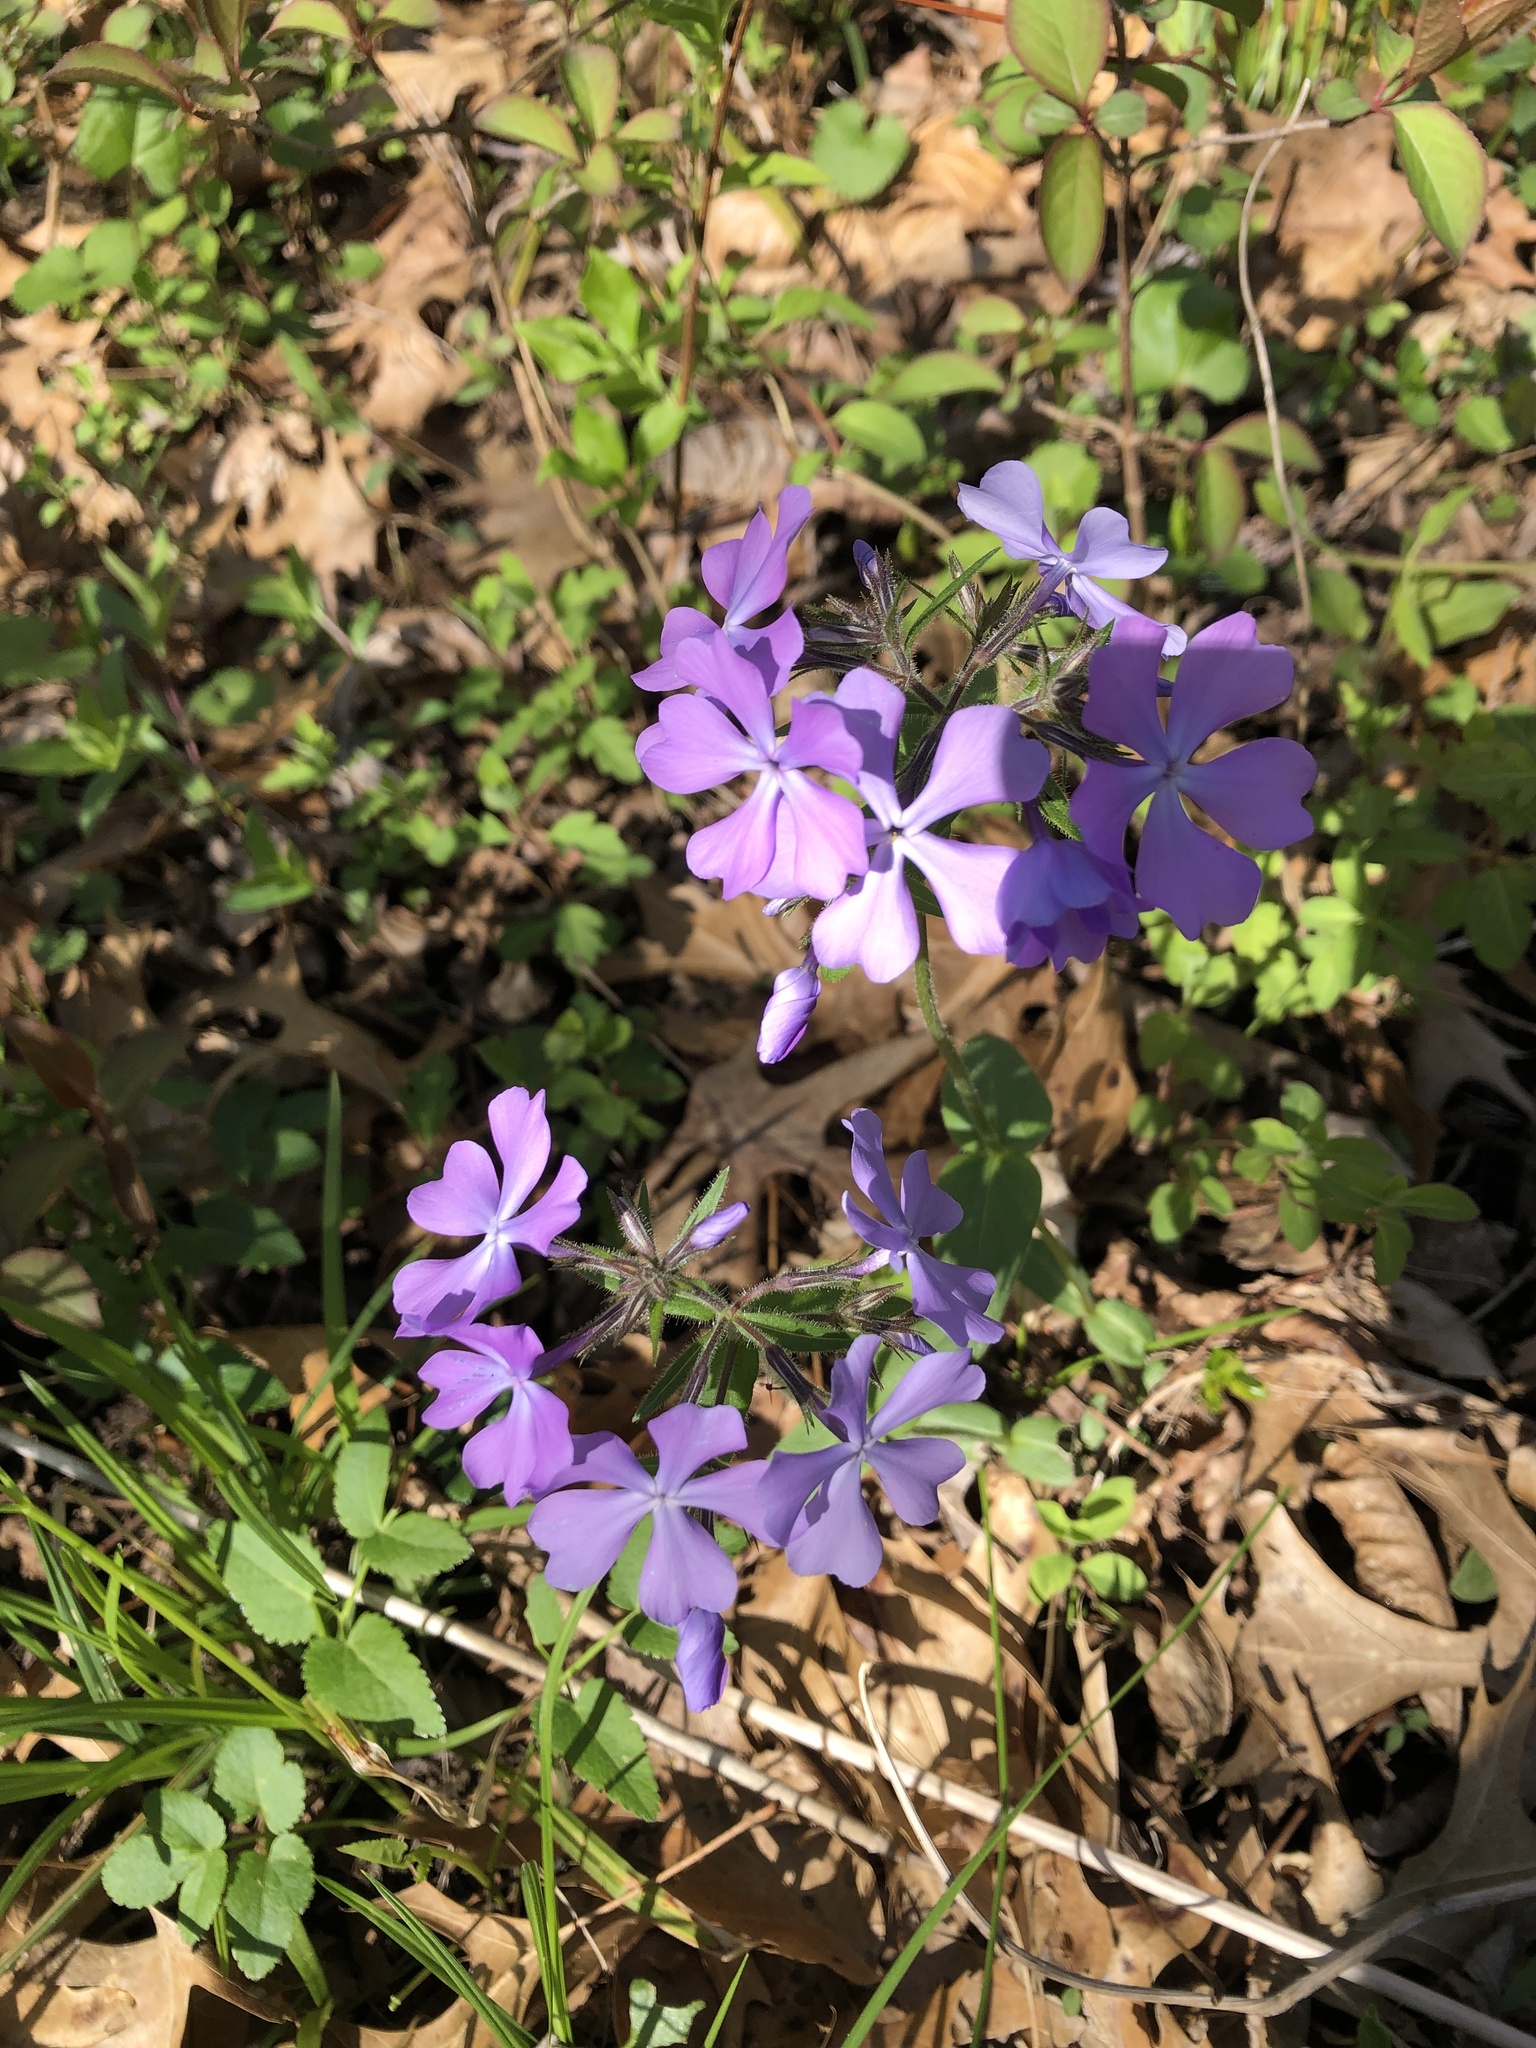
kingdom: Plantae
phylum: Tracheophyta
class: Magnoliopsida
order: Ericales
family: Polemoniaceae
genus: Phlox
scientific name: Phlox divaricata
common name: Blue phlox
